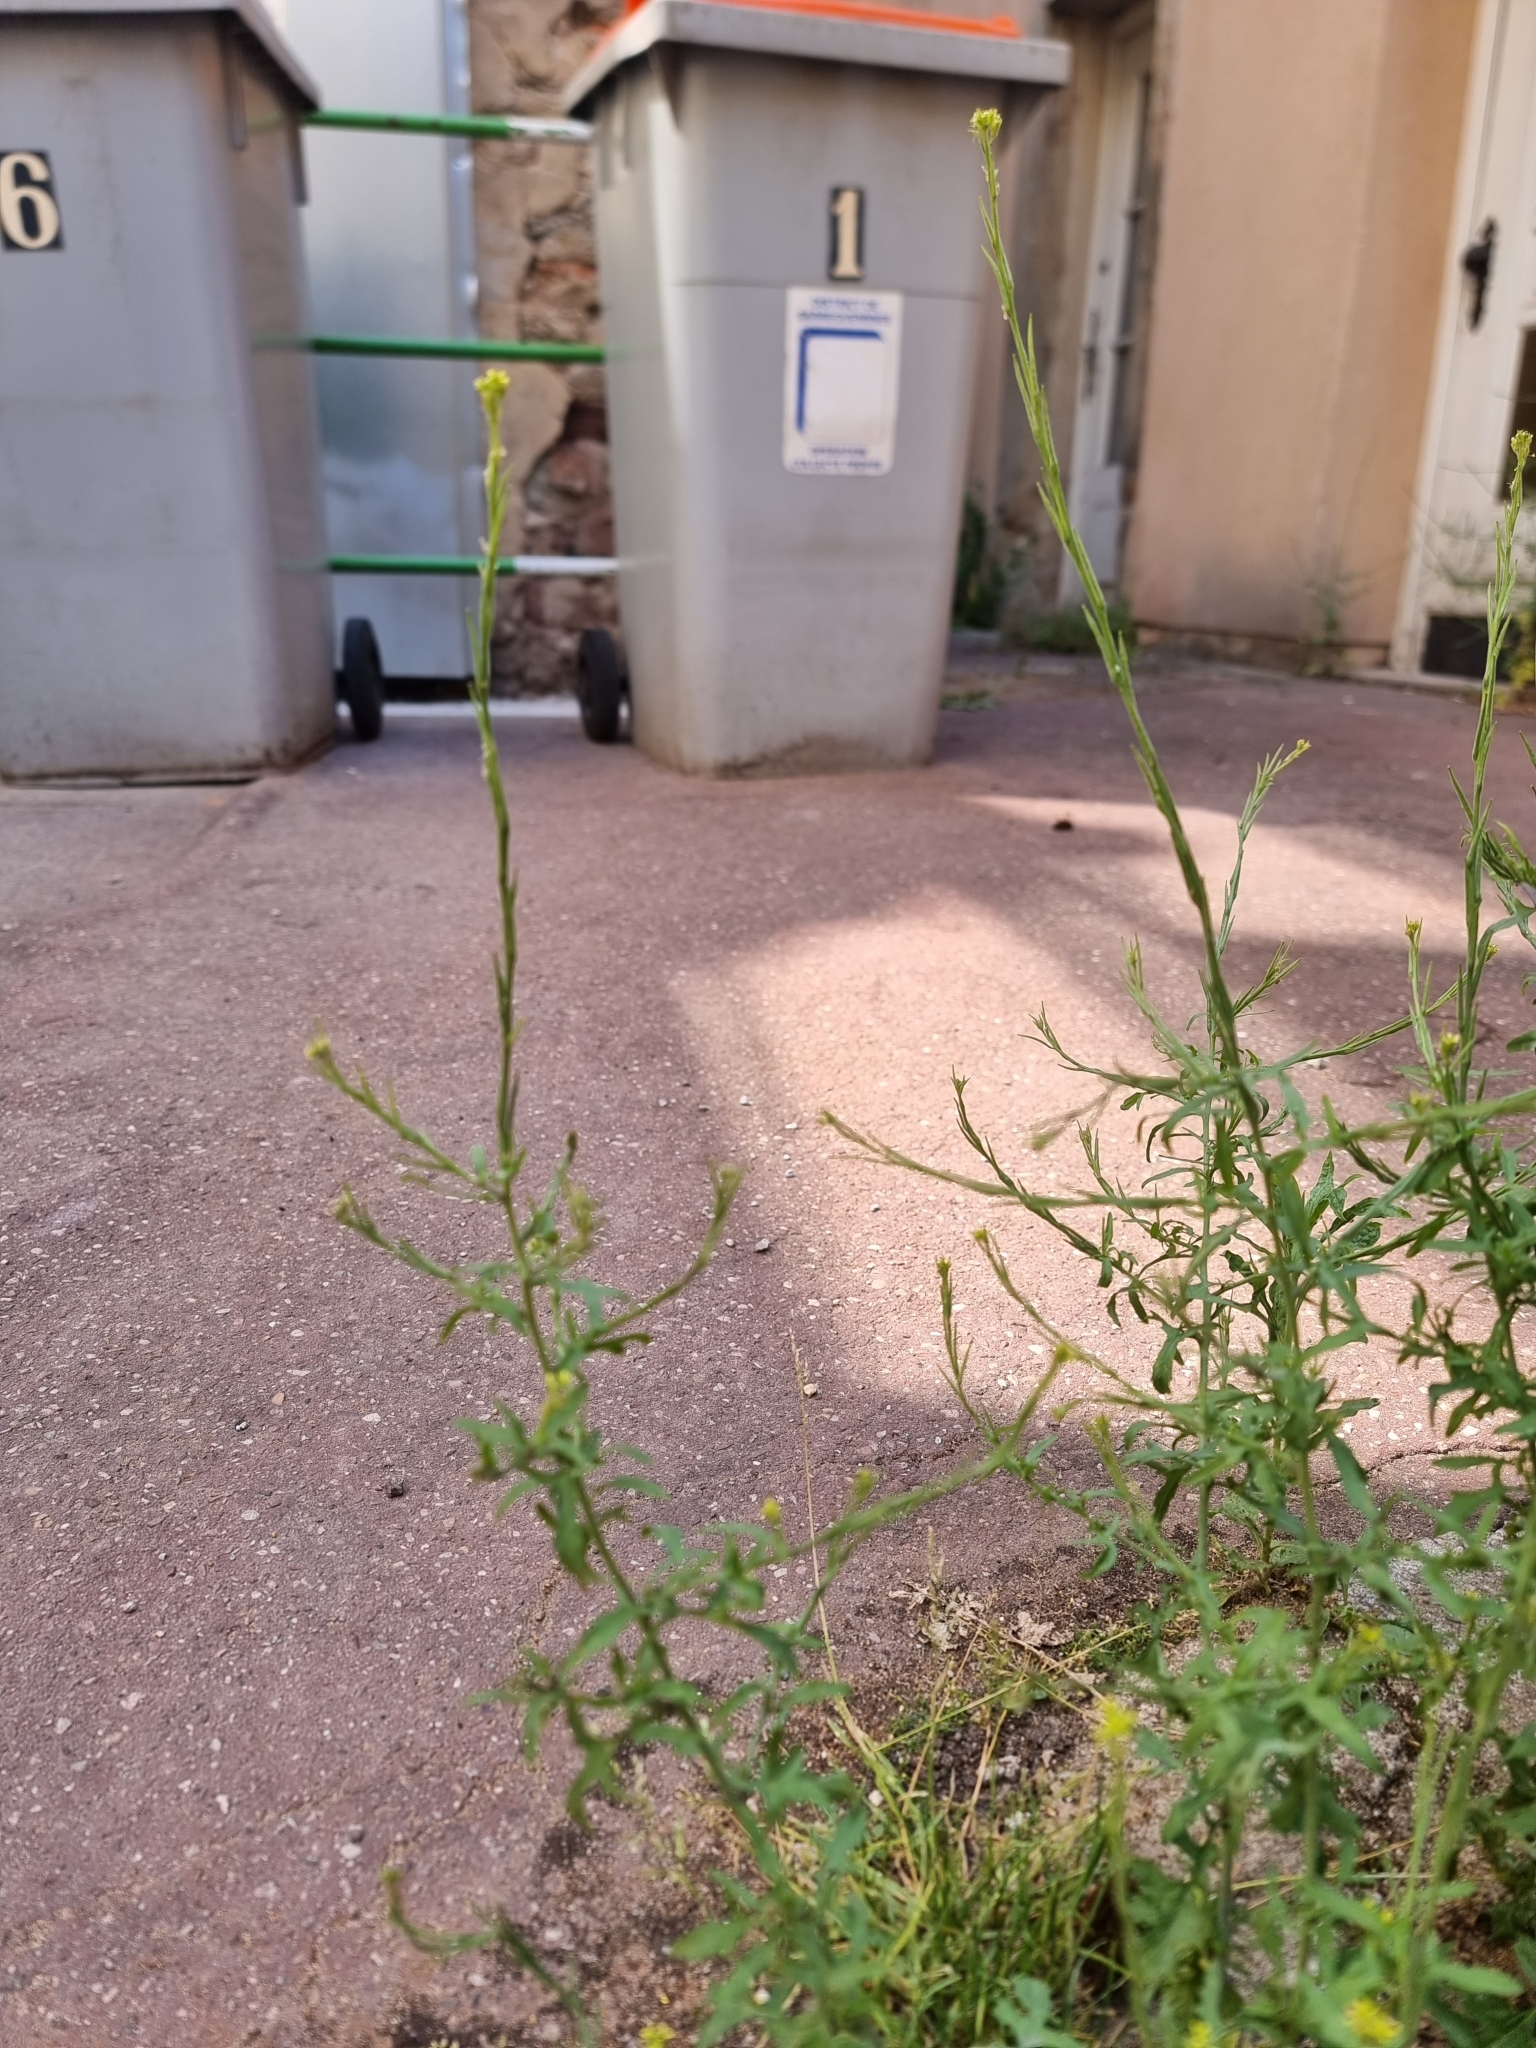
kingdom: Plantae
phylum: Tracheophyta
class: Magnoliopsida
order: Brassicales
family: Brassicaceae
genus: Sisymbrium
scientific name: Sisymbrium officinale
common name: Hedge mustard
